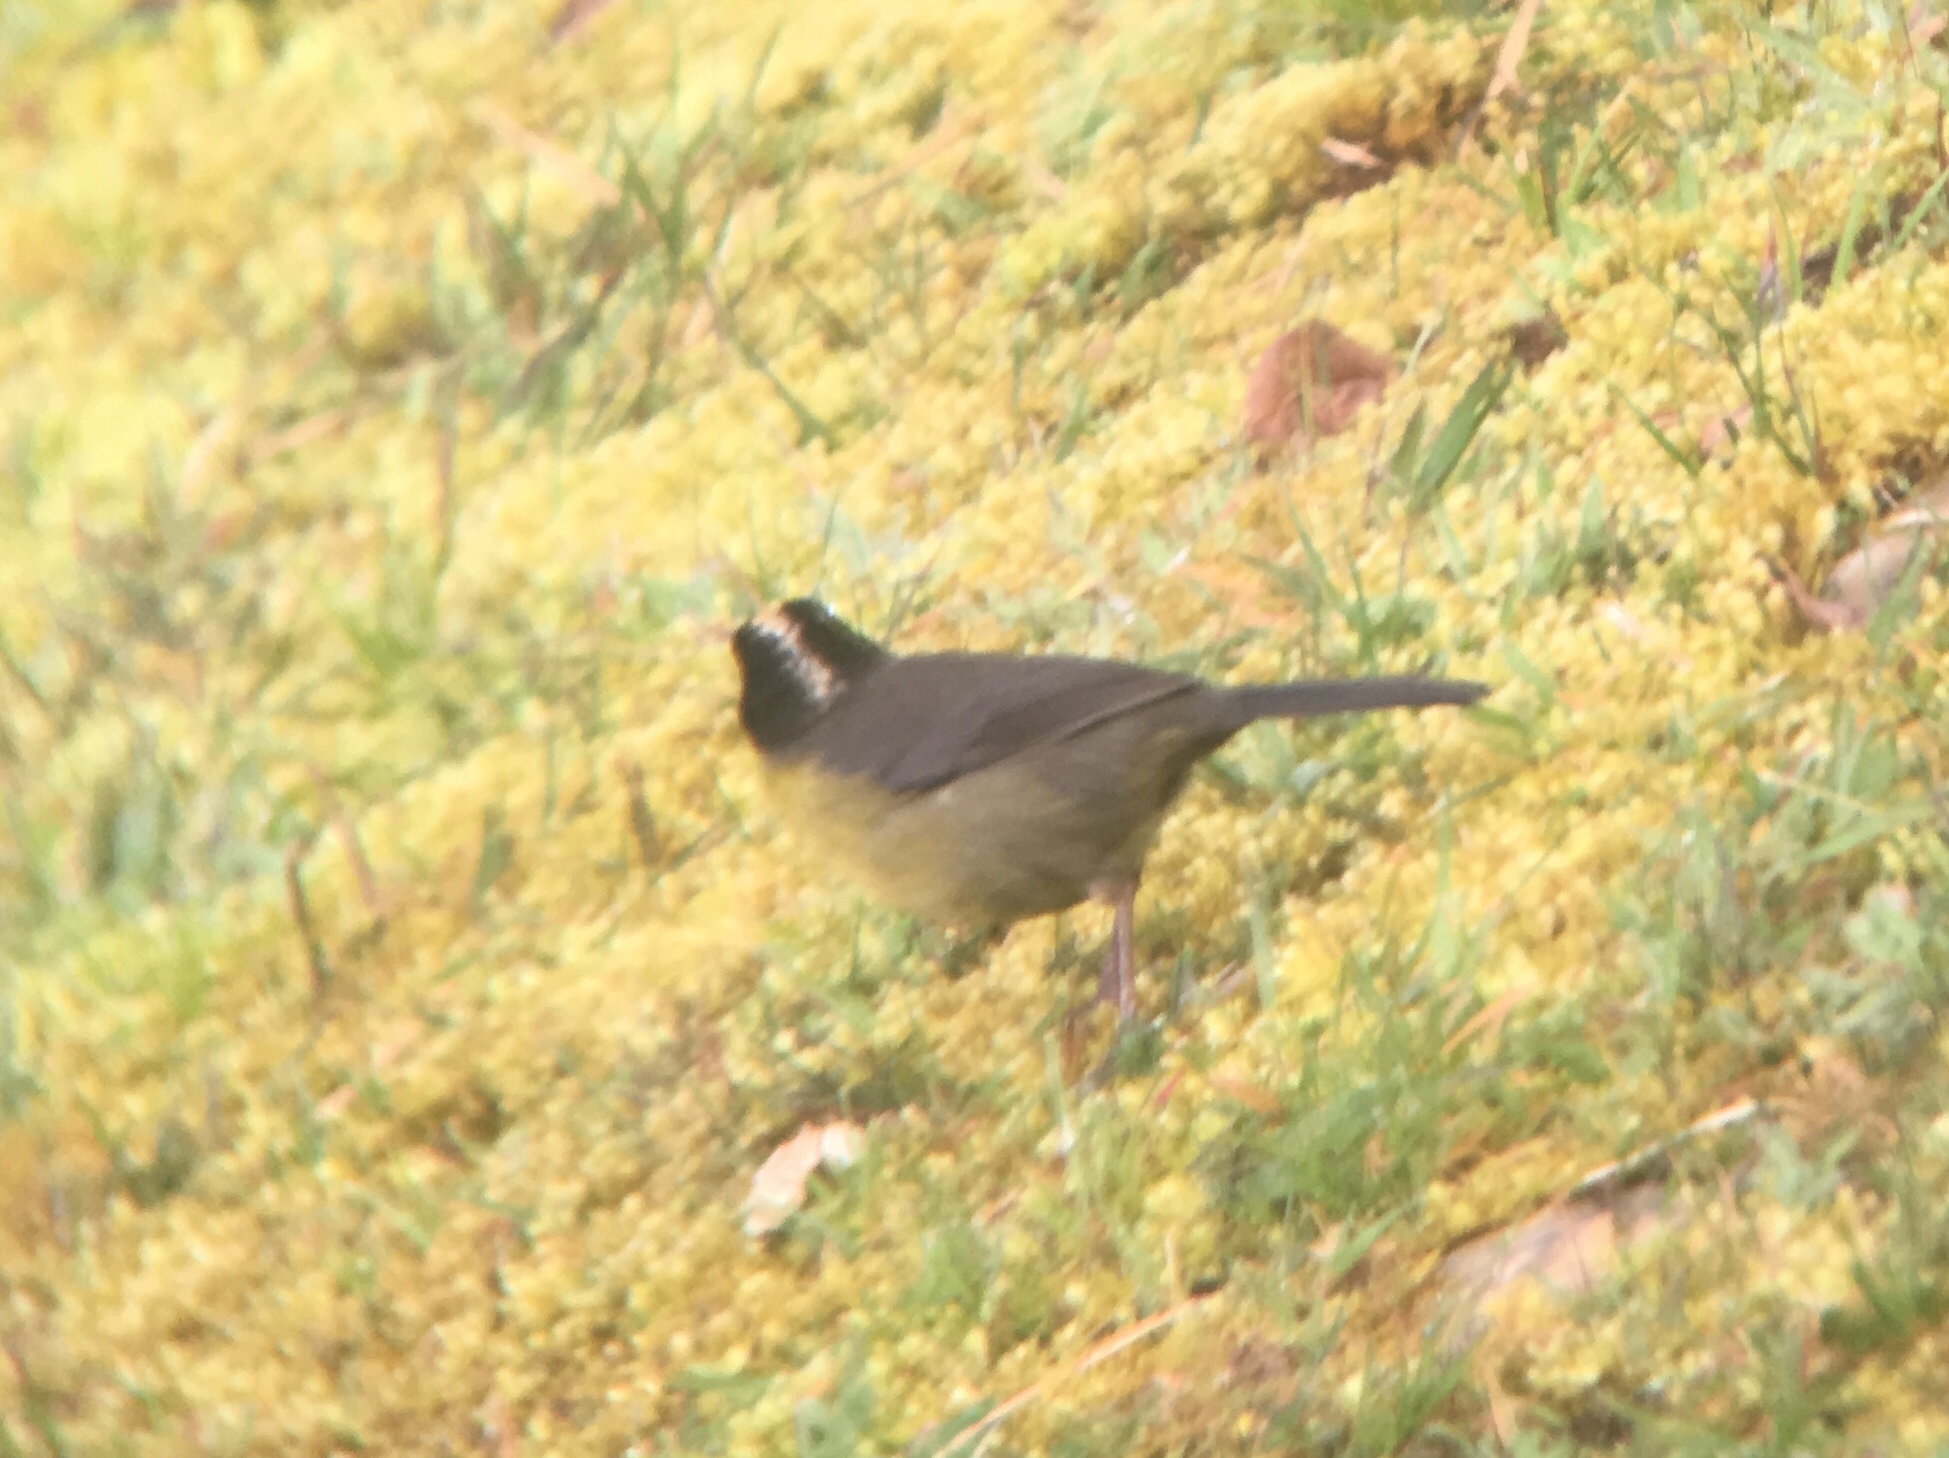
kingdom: Animalia
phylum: Chordata
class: Aves
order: Passeriformes
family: Passerellidae
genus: Atlapetes
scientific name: Atlapetes albinucha
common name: White-naped brush-finch
